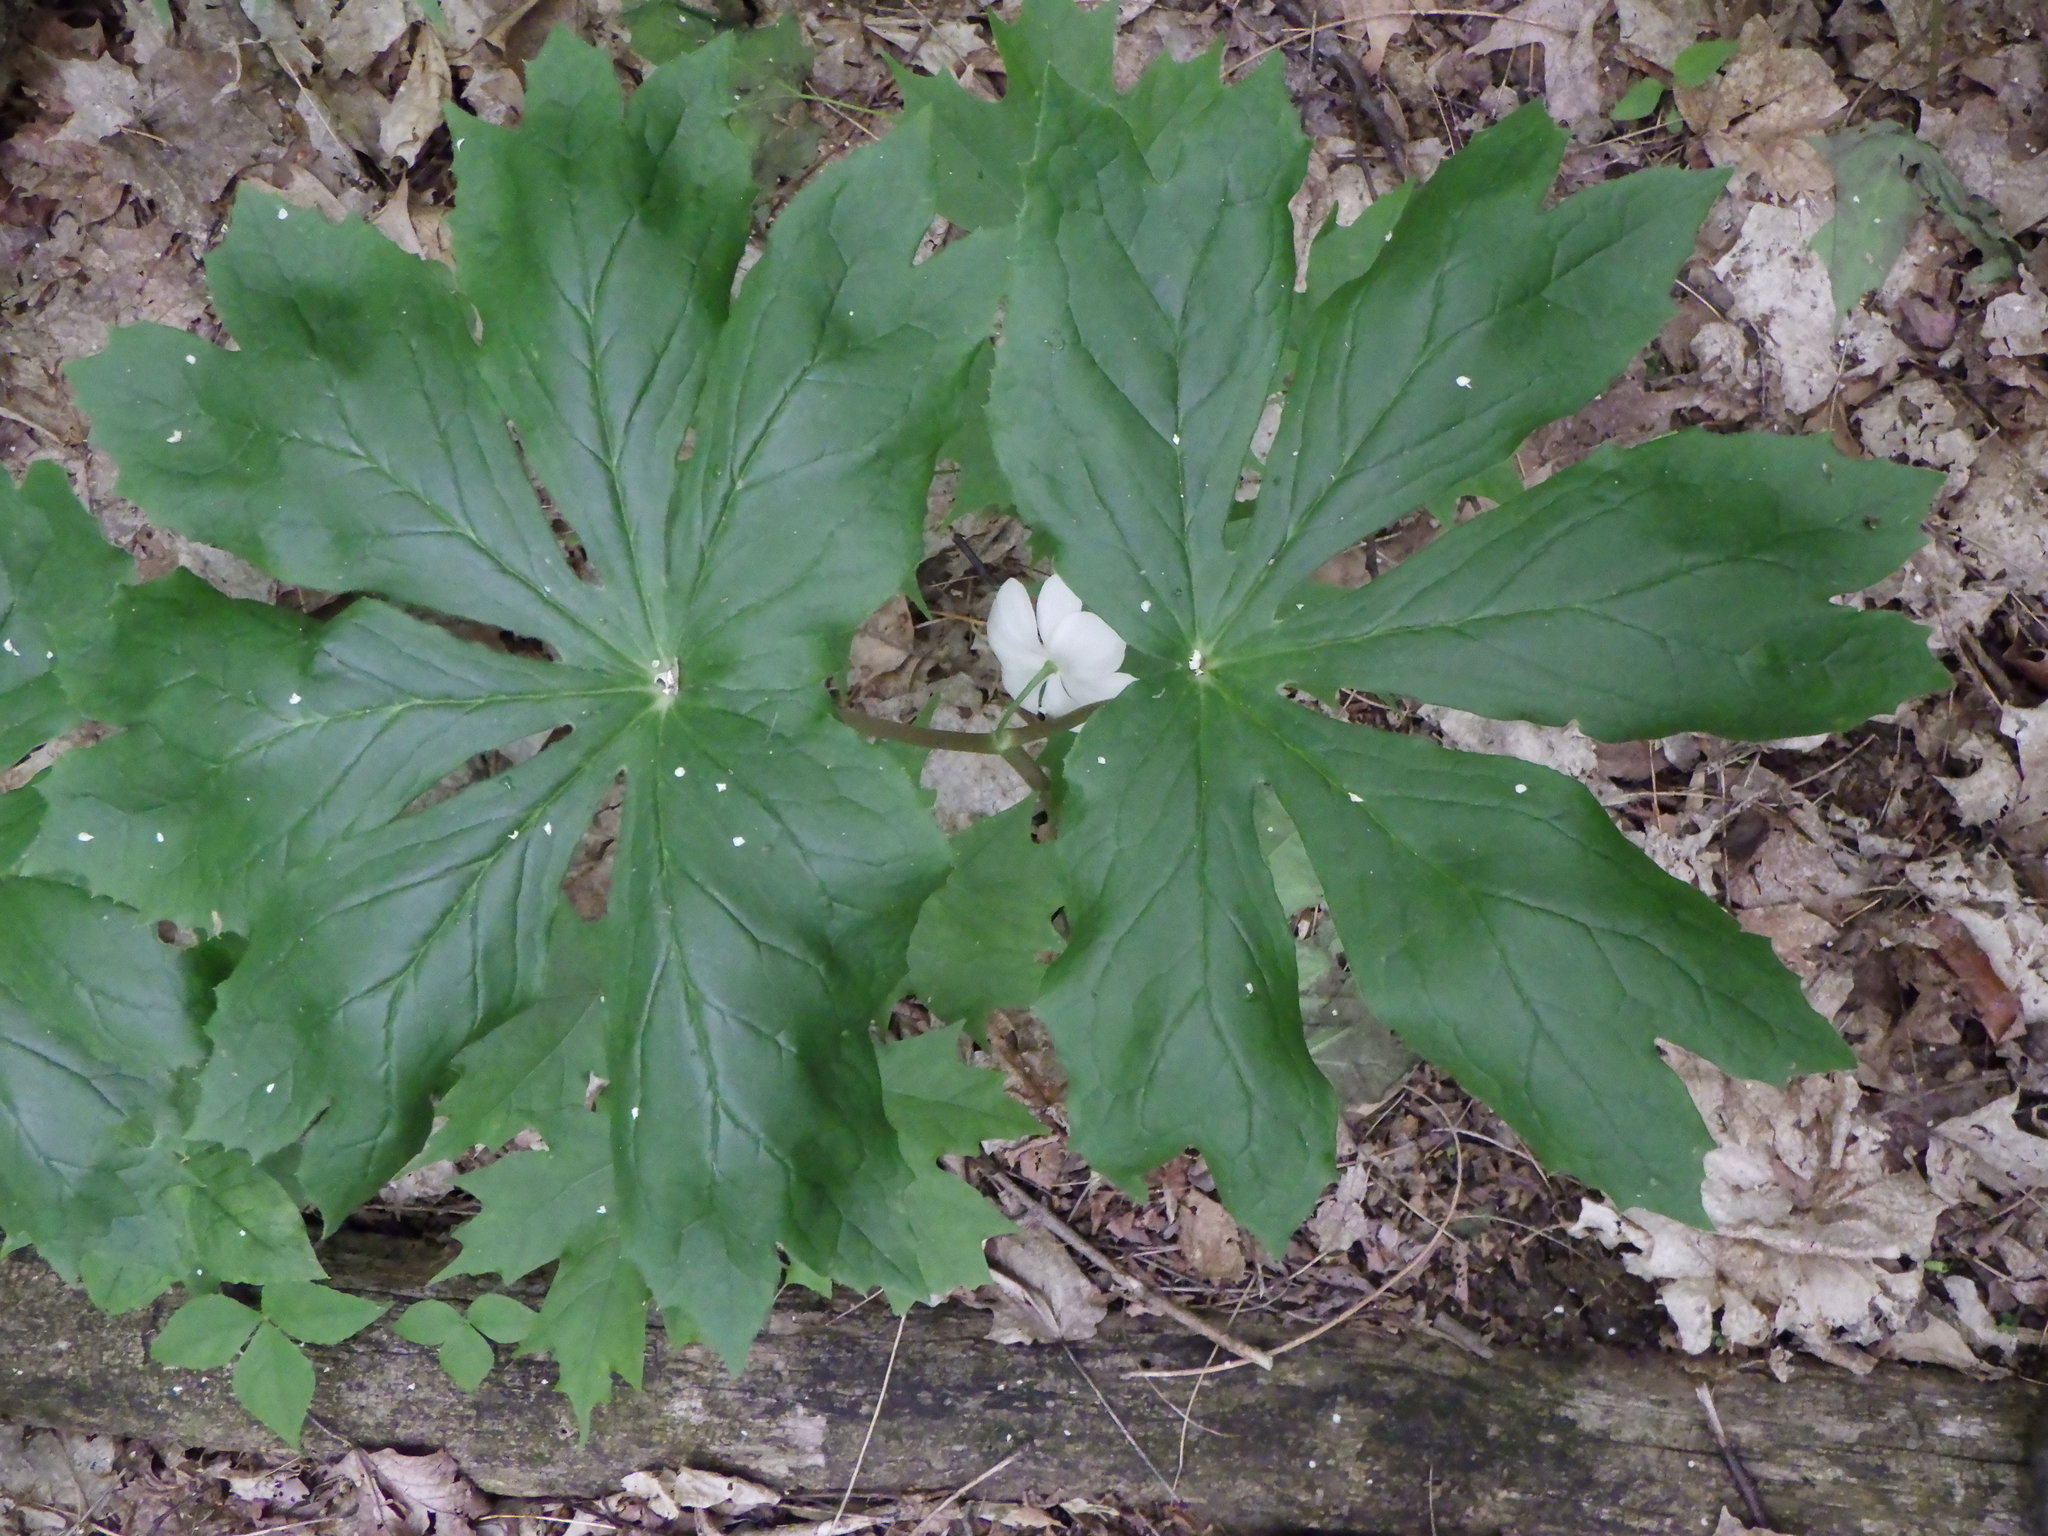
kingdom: Plantae
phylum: Tracheophyta
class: Magnoliopsida
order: Ranunculales
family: Berberidaceae
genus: Podophyllum
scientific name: Podophyllum peltatum
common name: Wild mandrake
